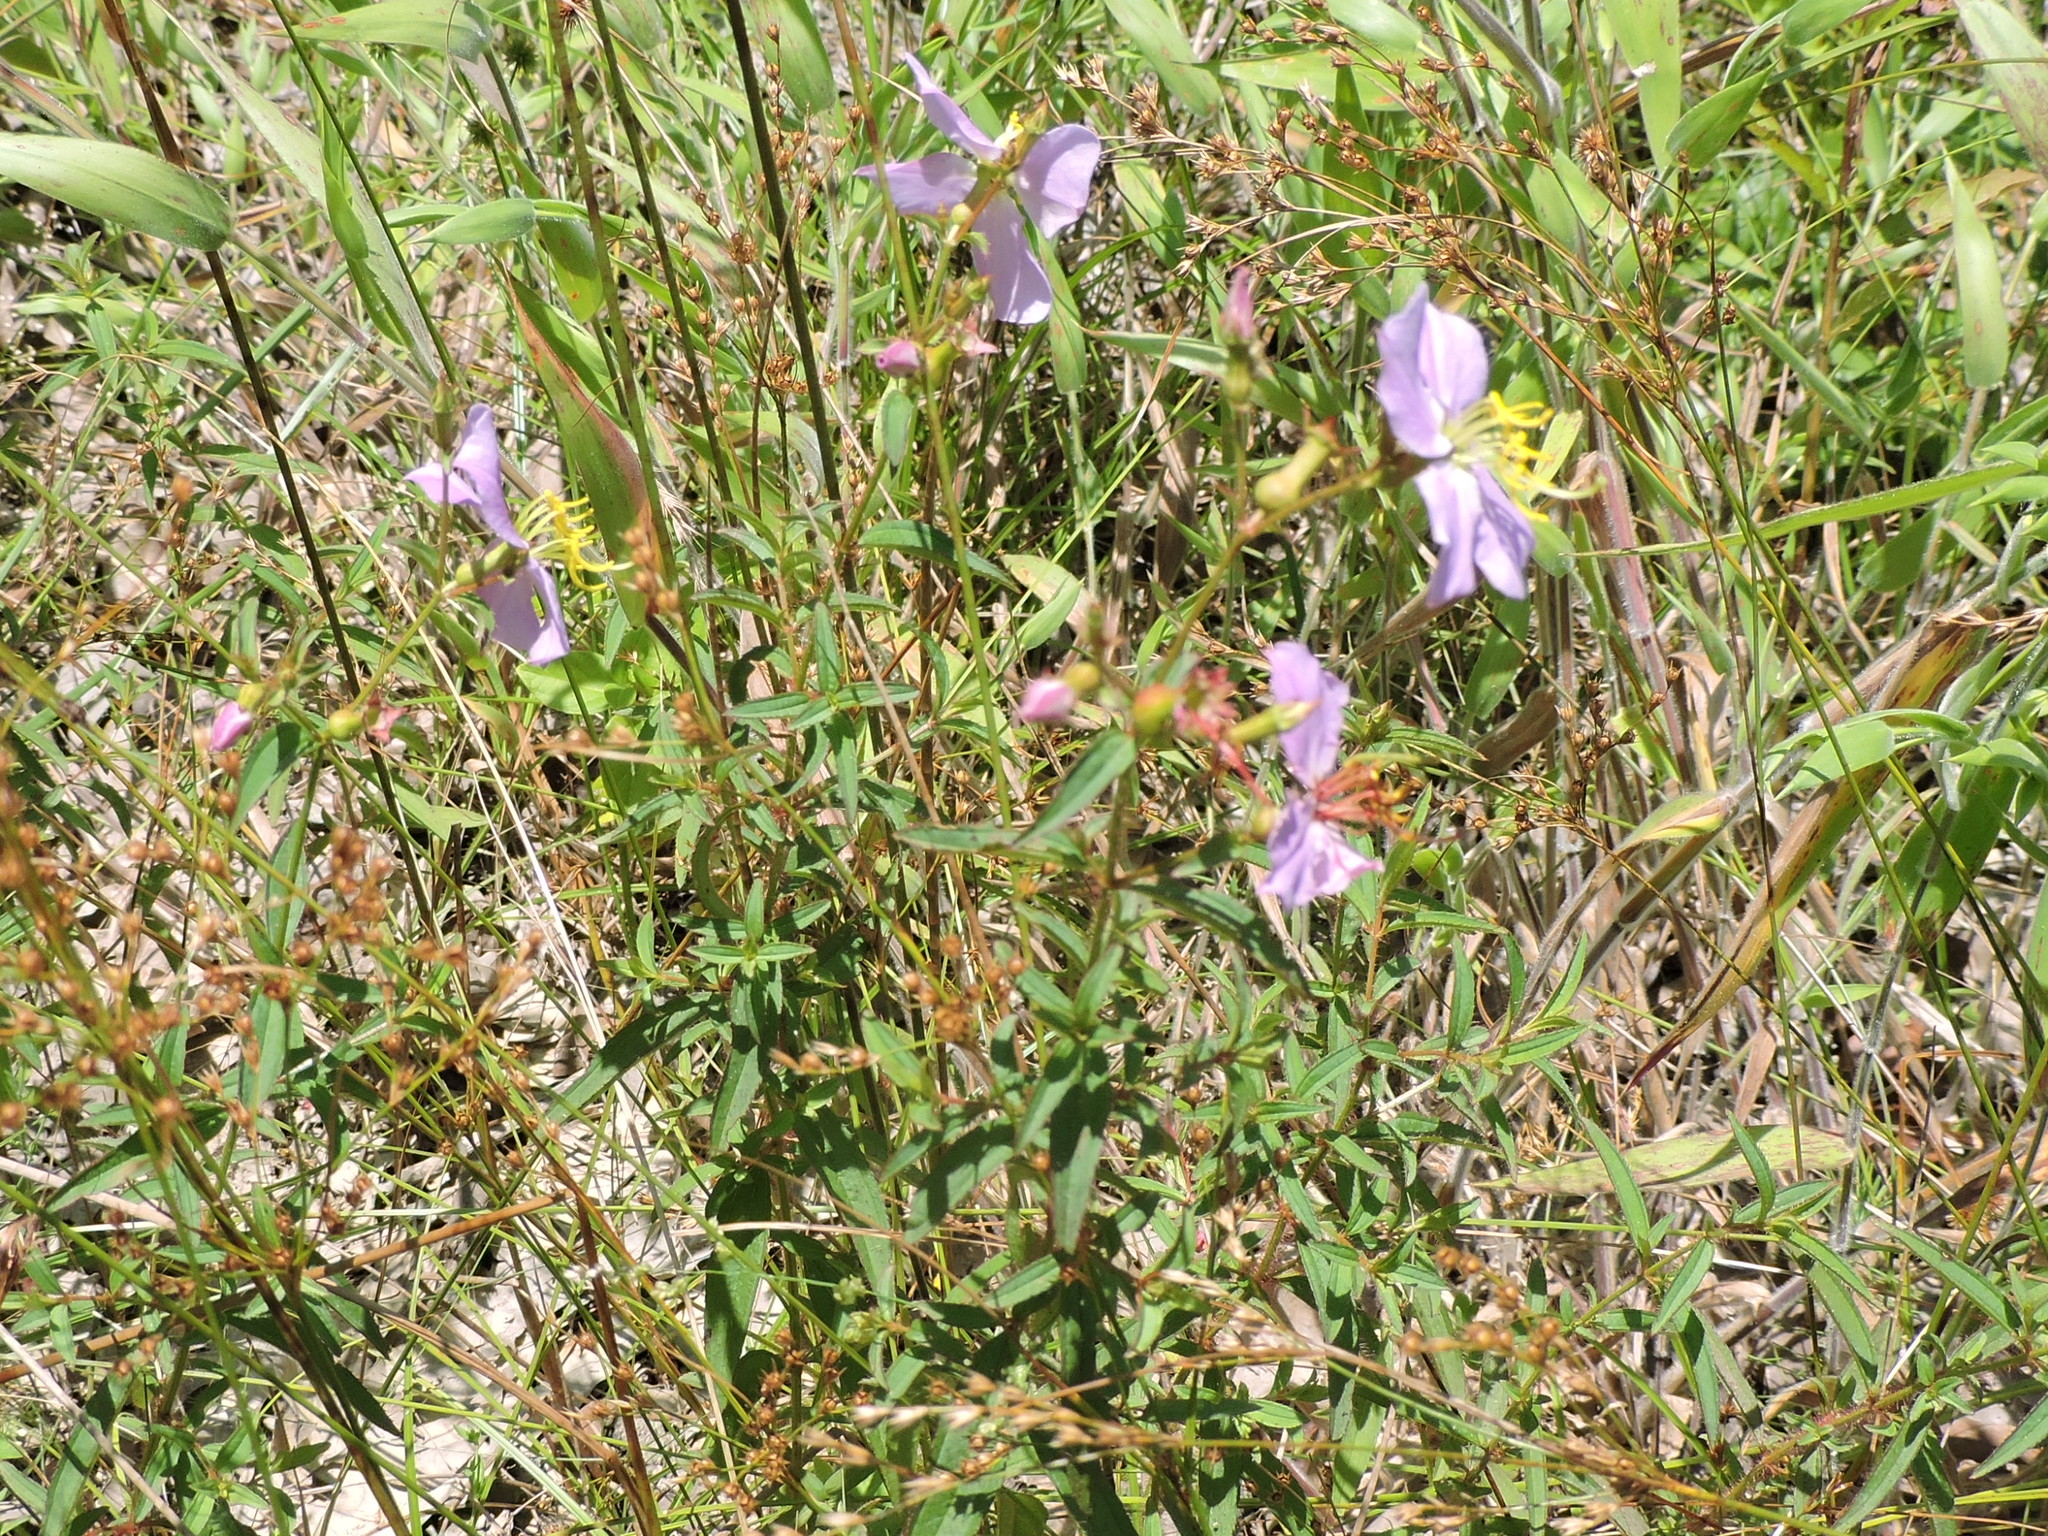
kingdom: Plantae
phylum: Tracheophyta
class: Magnoliopsida
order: Myrtales
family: Melastomataceae
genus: Rhexia
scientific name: Rhexia mariana
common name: Dull meadow-pitcher
